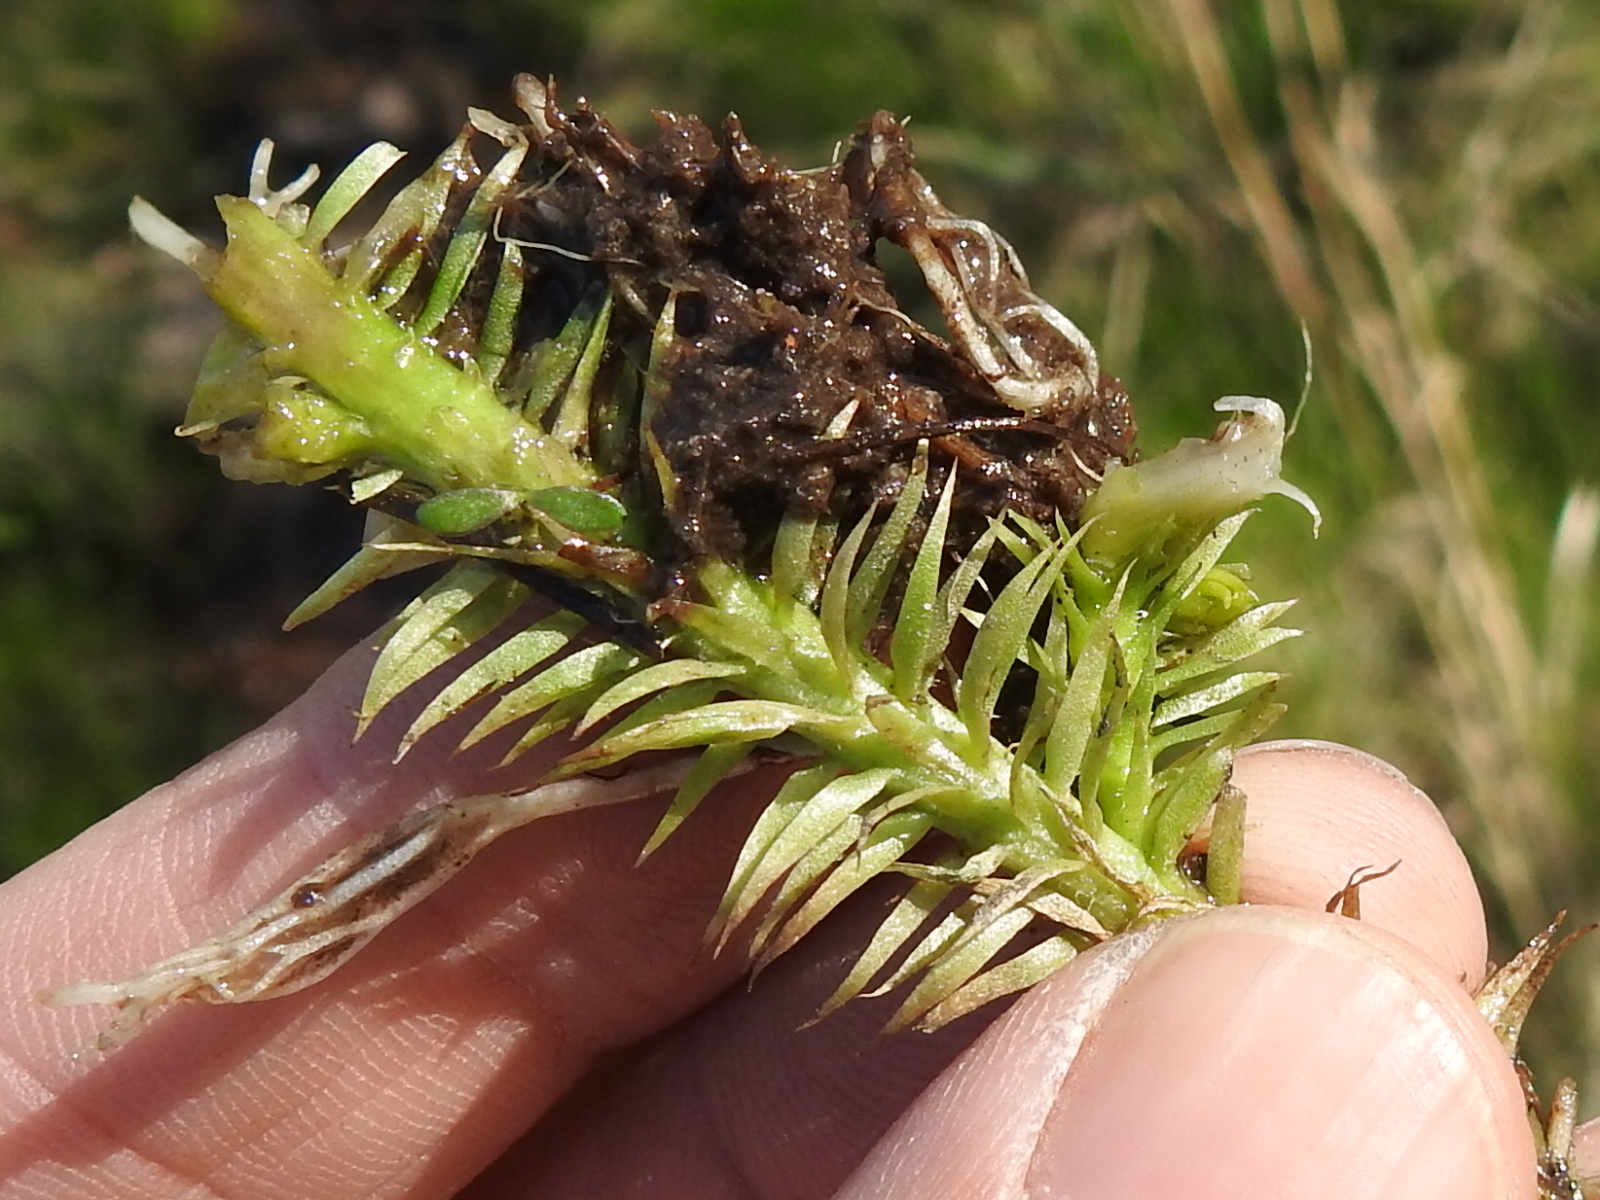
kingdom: Plantae
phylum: Tracheophyta
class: Lycopodiopsida
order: Lycopodiales
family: Lycopodiaceae
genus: Lycopodiella
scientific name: Lycopodiella appressa
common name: Appressed bog clubmoss
